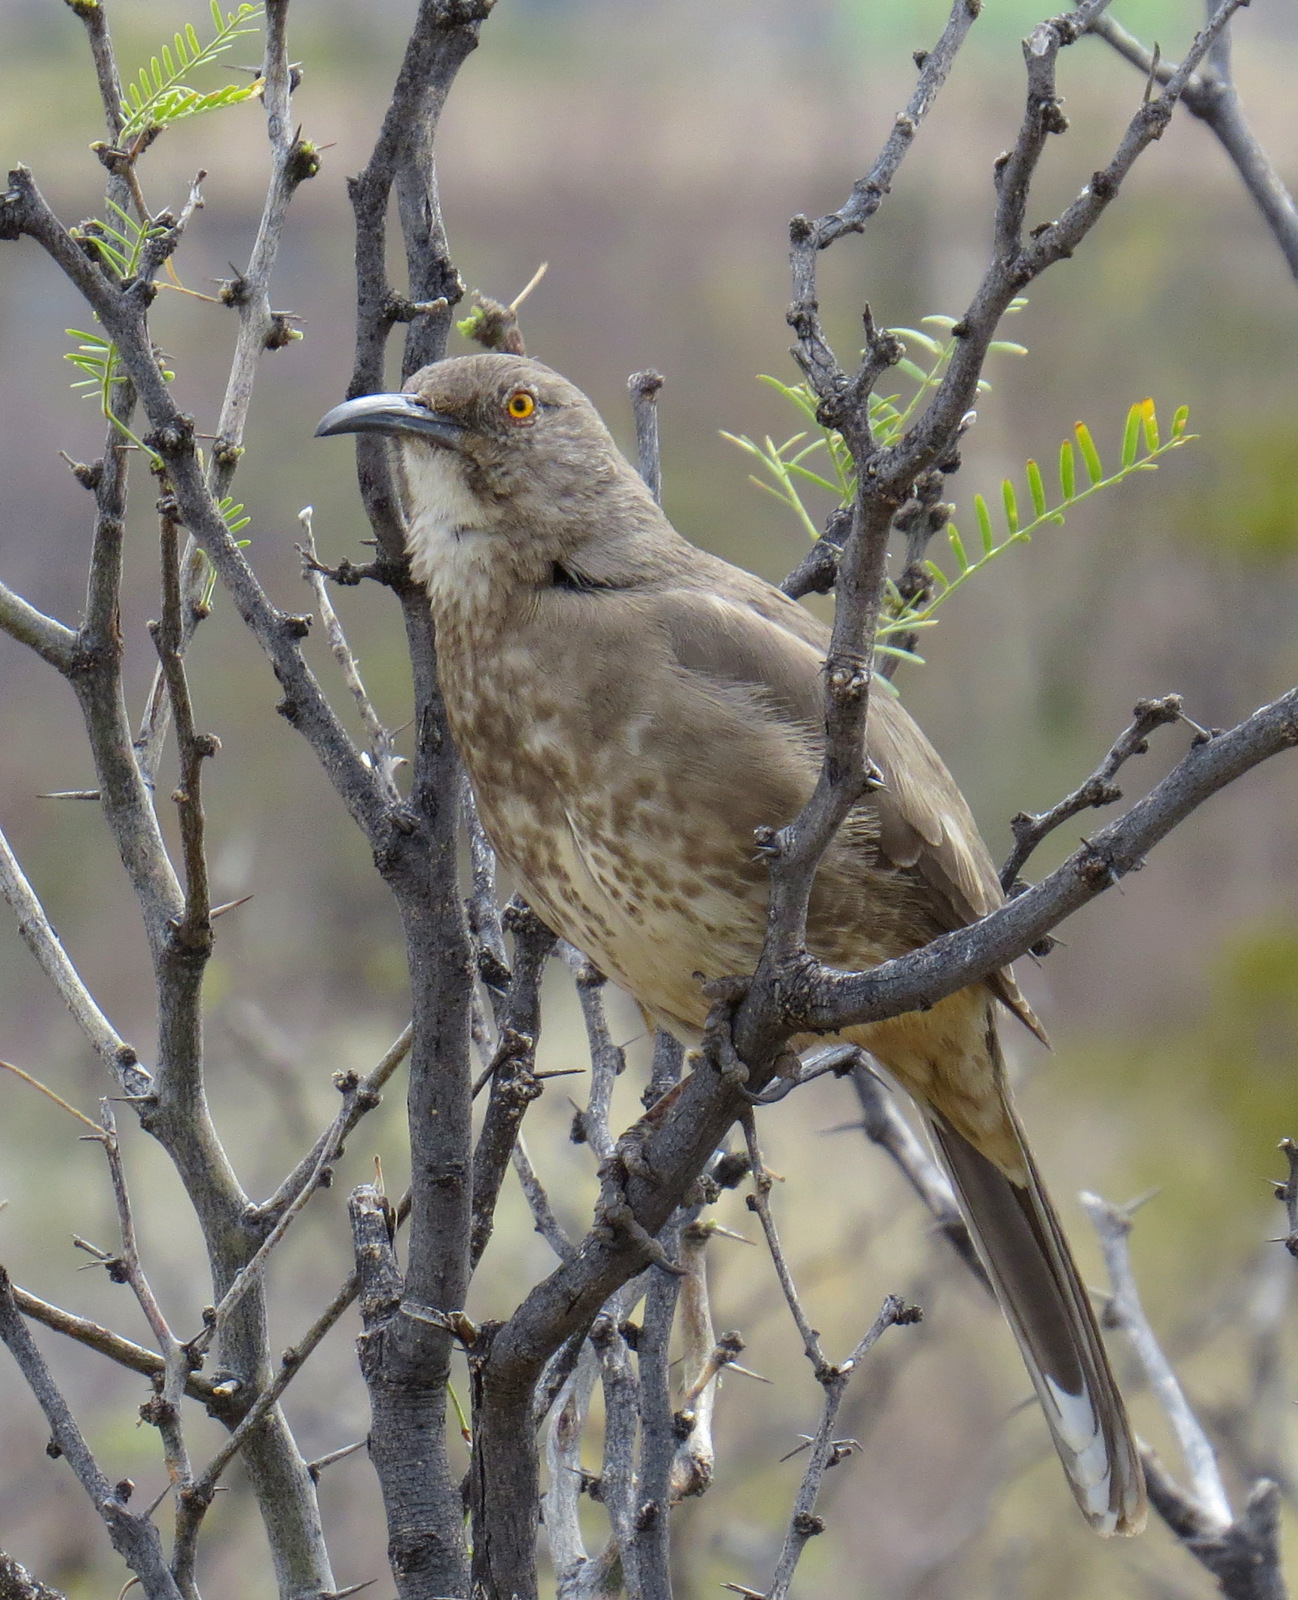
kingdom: Animalia
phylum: Chordata
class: Aves
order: Passeriformes
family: Mimidae
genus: Toxostoma
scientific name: Toxostoma curvirostre
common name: Curve-billed thrasher
